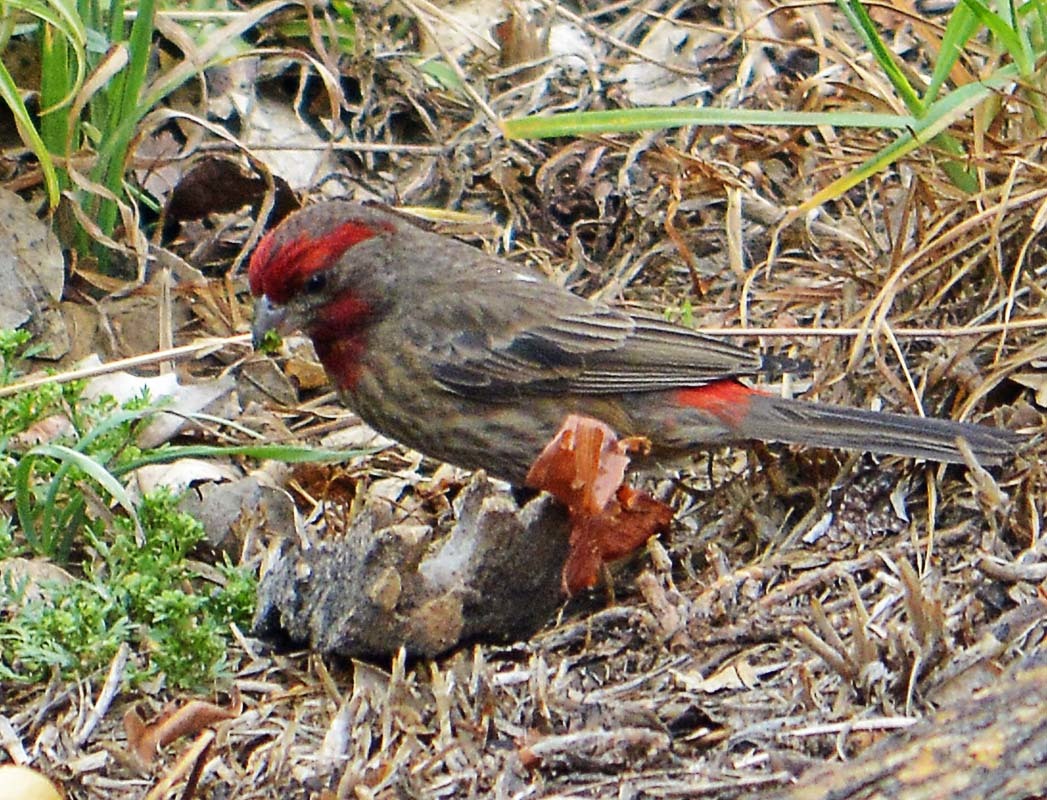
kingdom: Animalia
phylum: Chordata
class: Aves
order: Passeriformes
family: Fringillidae
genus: Haemorhous
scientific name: Haemorhous mexicanus
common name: House finch
